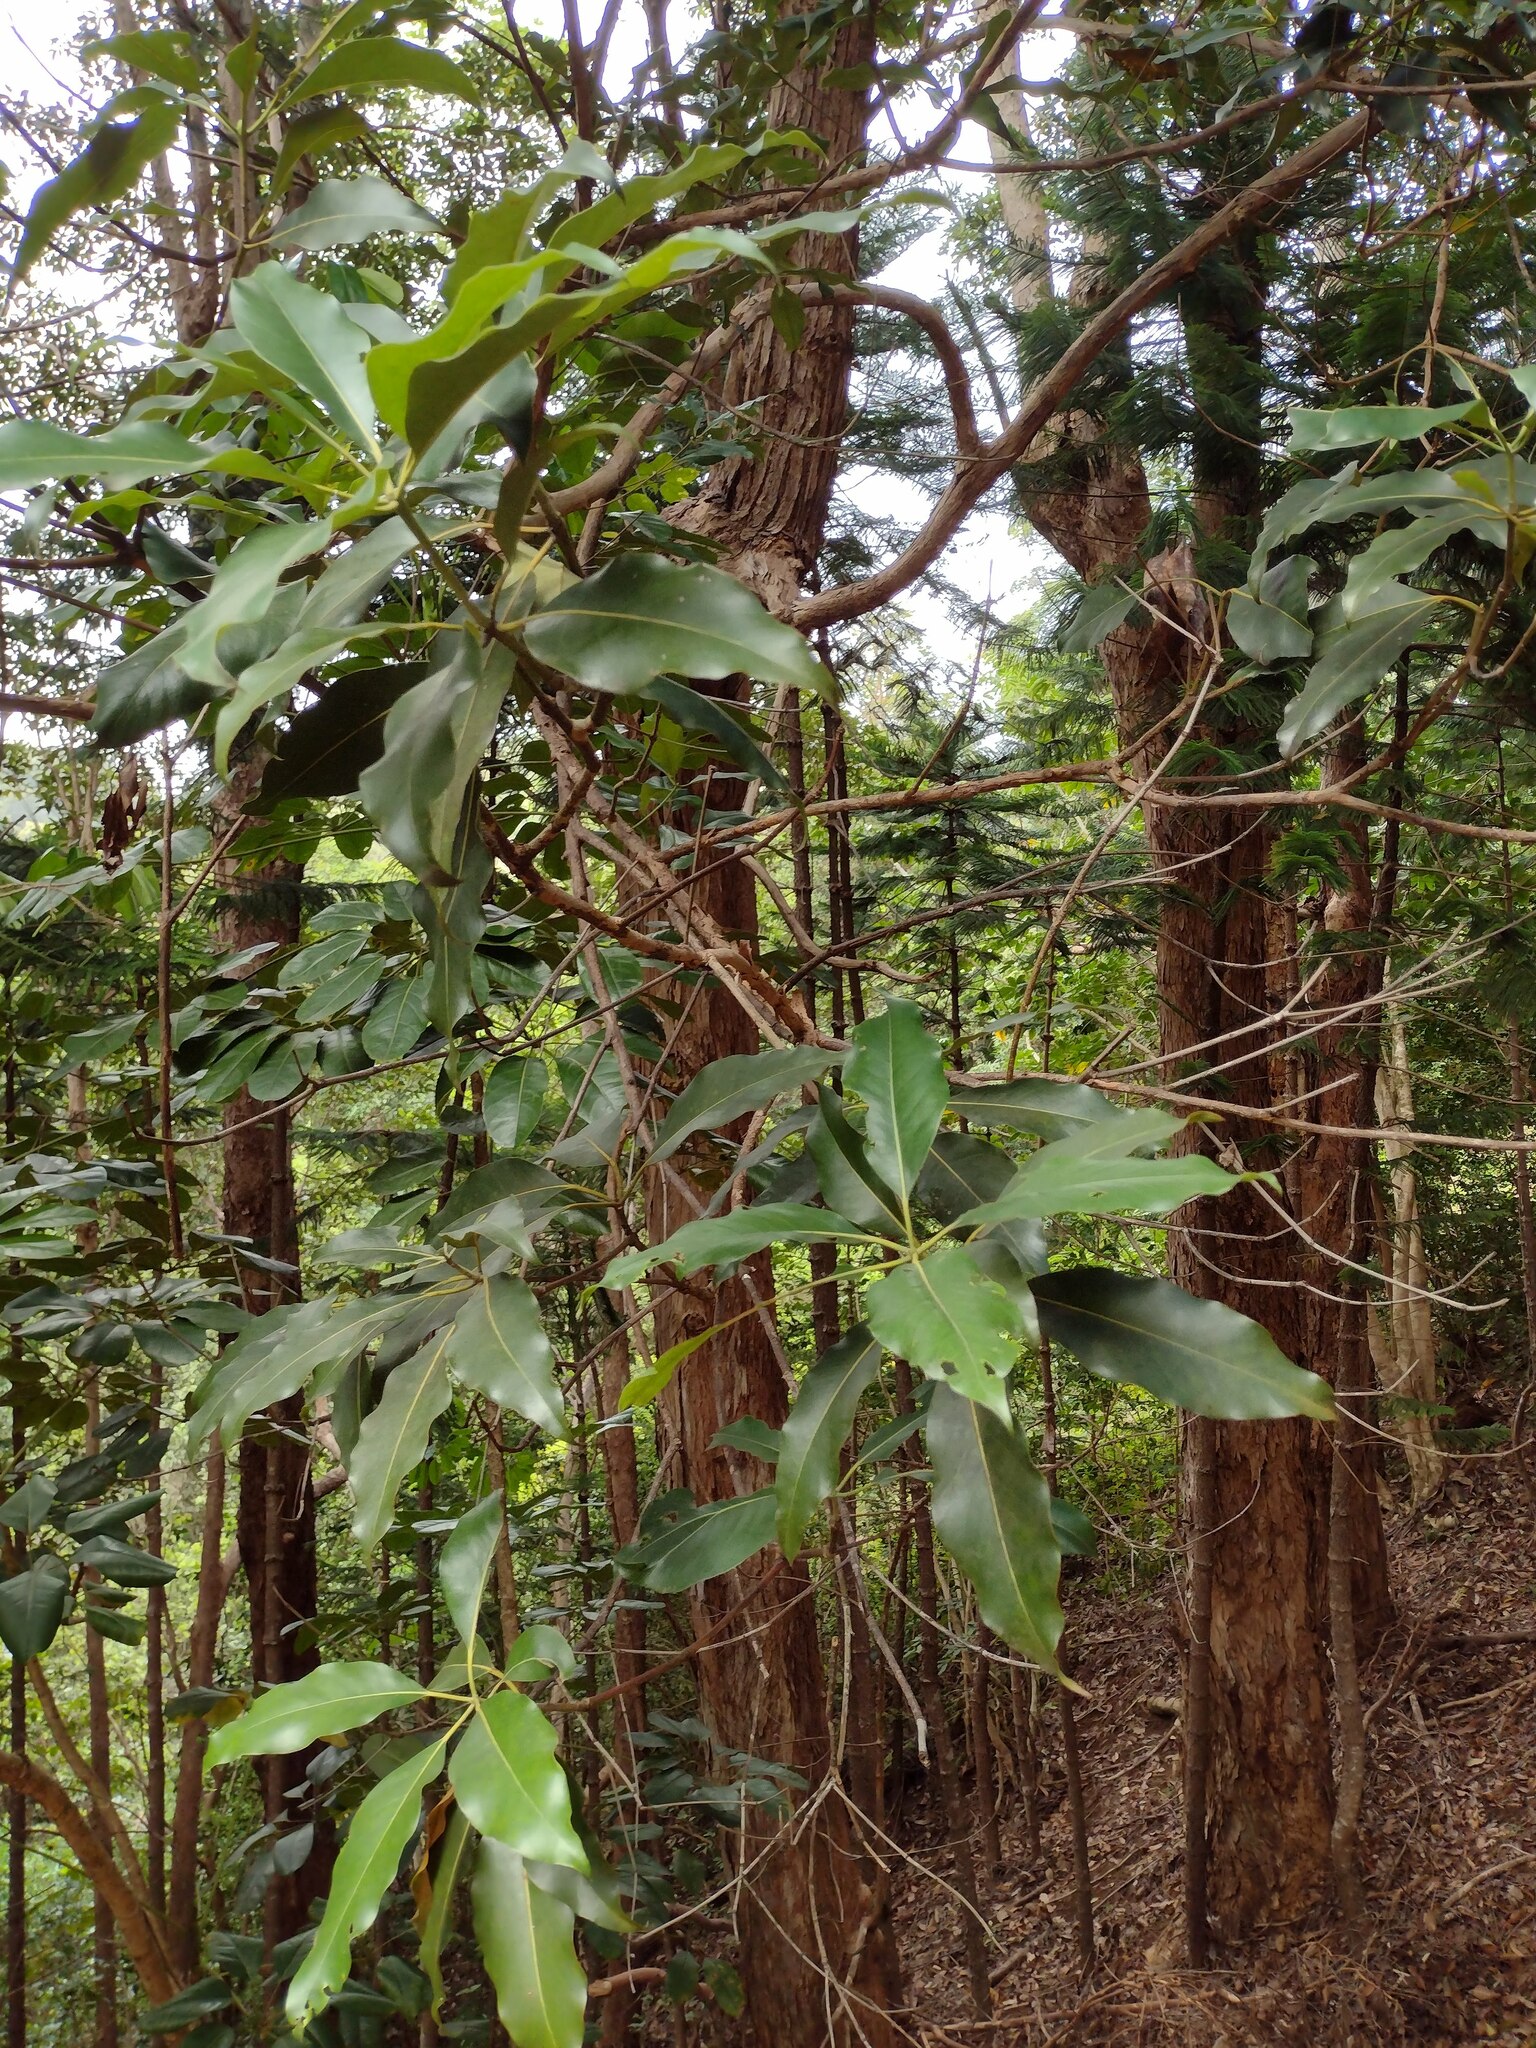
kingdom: Plantae
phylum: Tracheophyta
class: Magnoliopsida
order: Myrtales
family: Myrtaceae
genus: Lophostemon
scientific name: Lophostemon confertus
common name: Brisbane box
